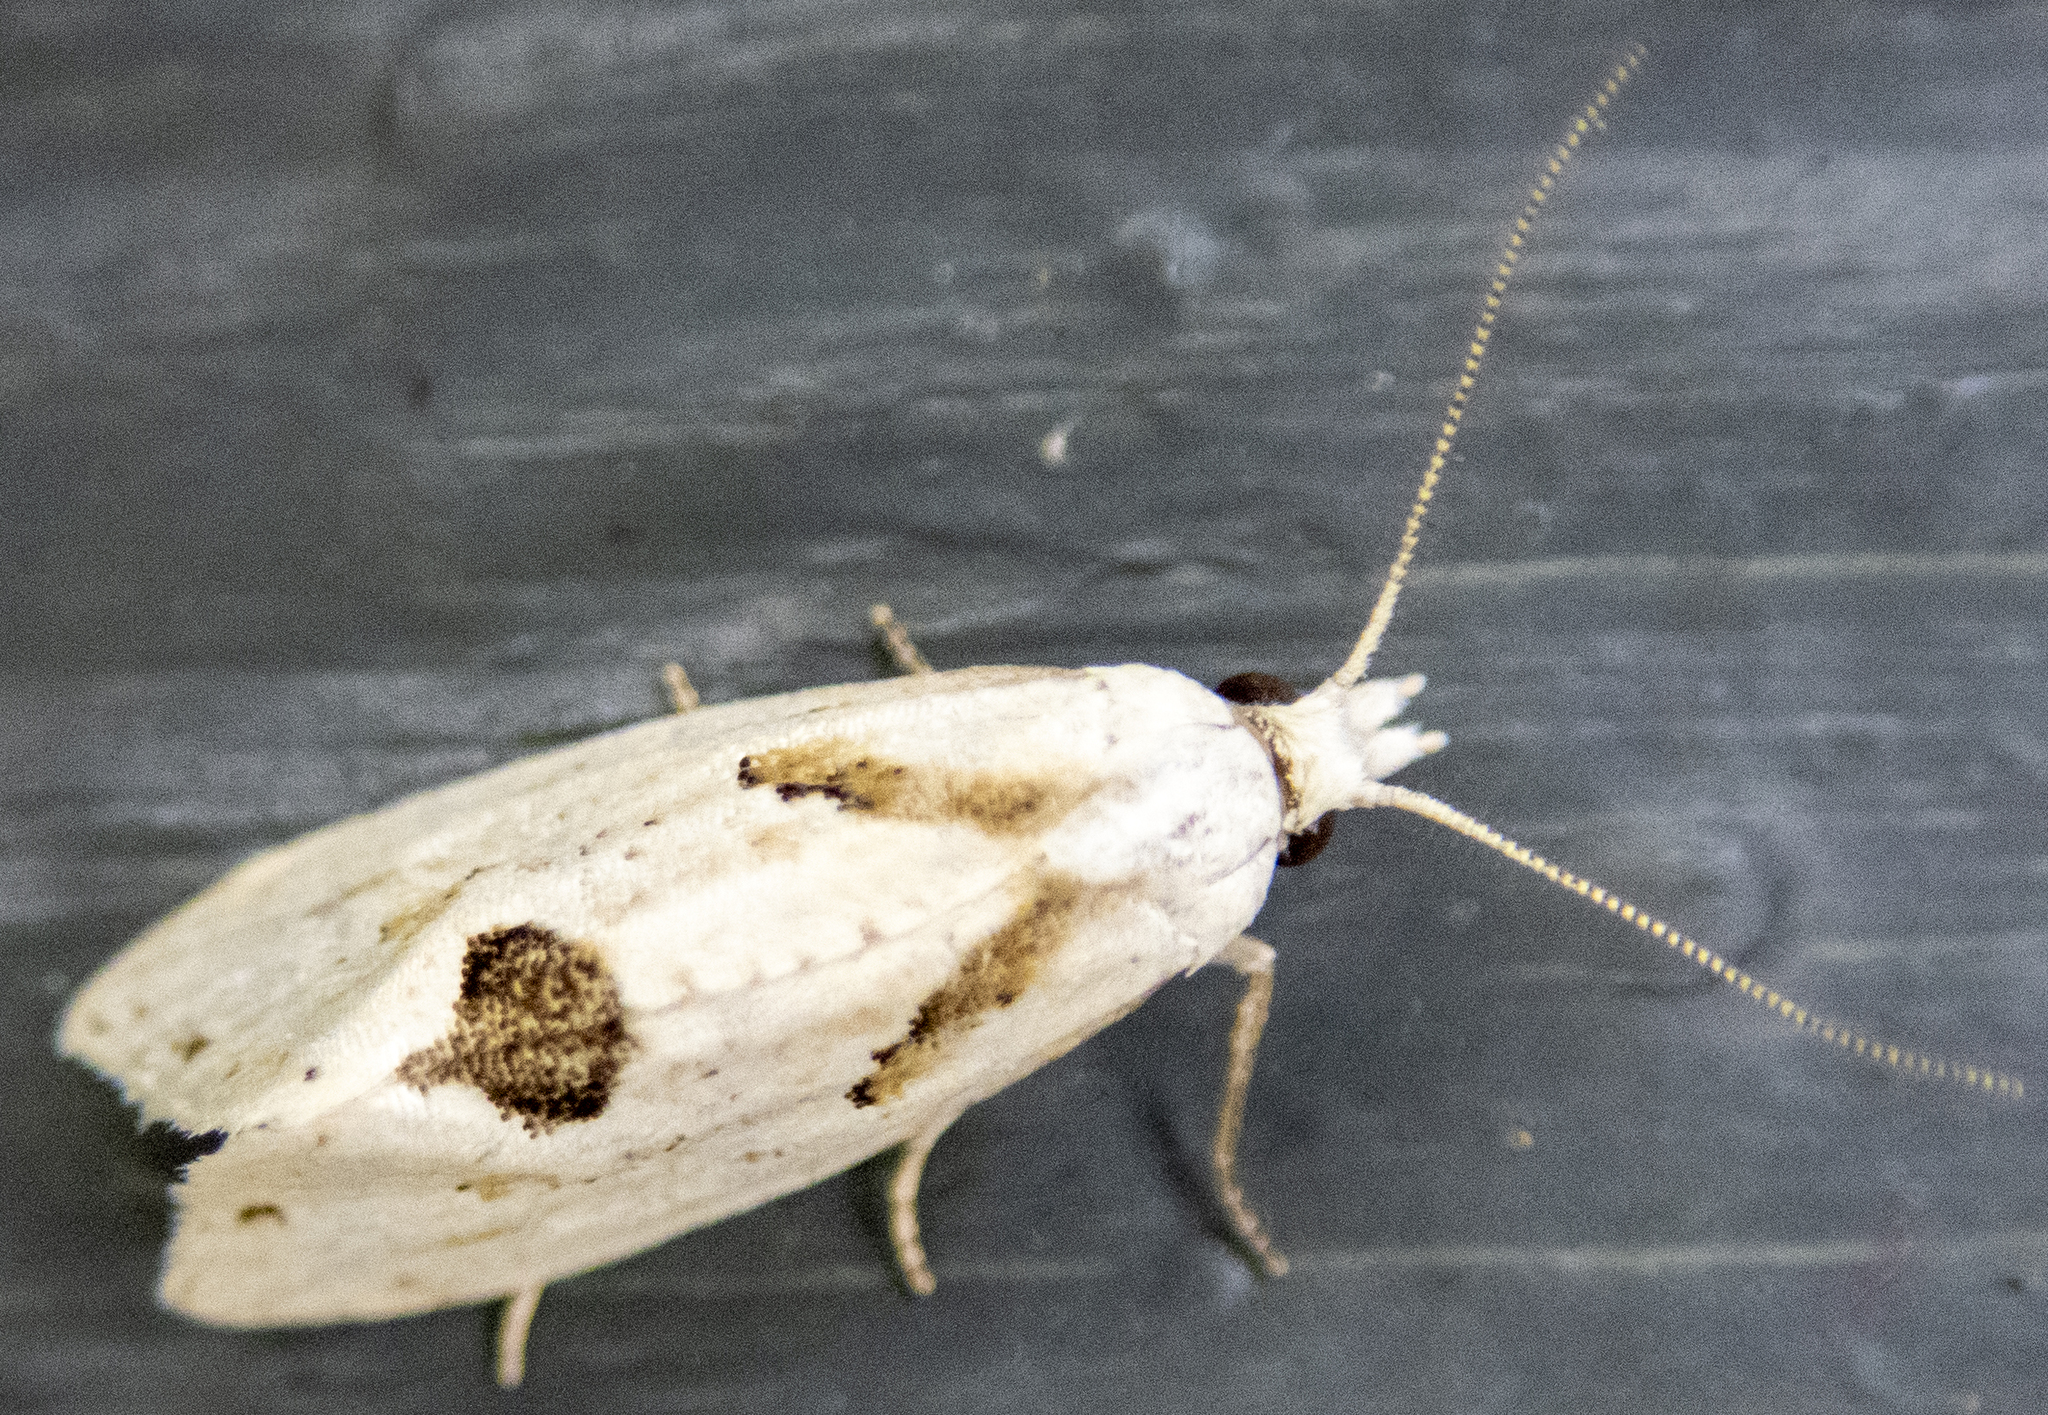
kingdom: Animalia
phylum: Arthropoda
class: Insecta
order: Lepidoptera
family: Tortricidae
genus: Aethes
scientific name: Aethes mymara
